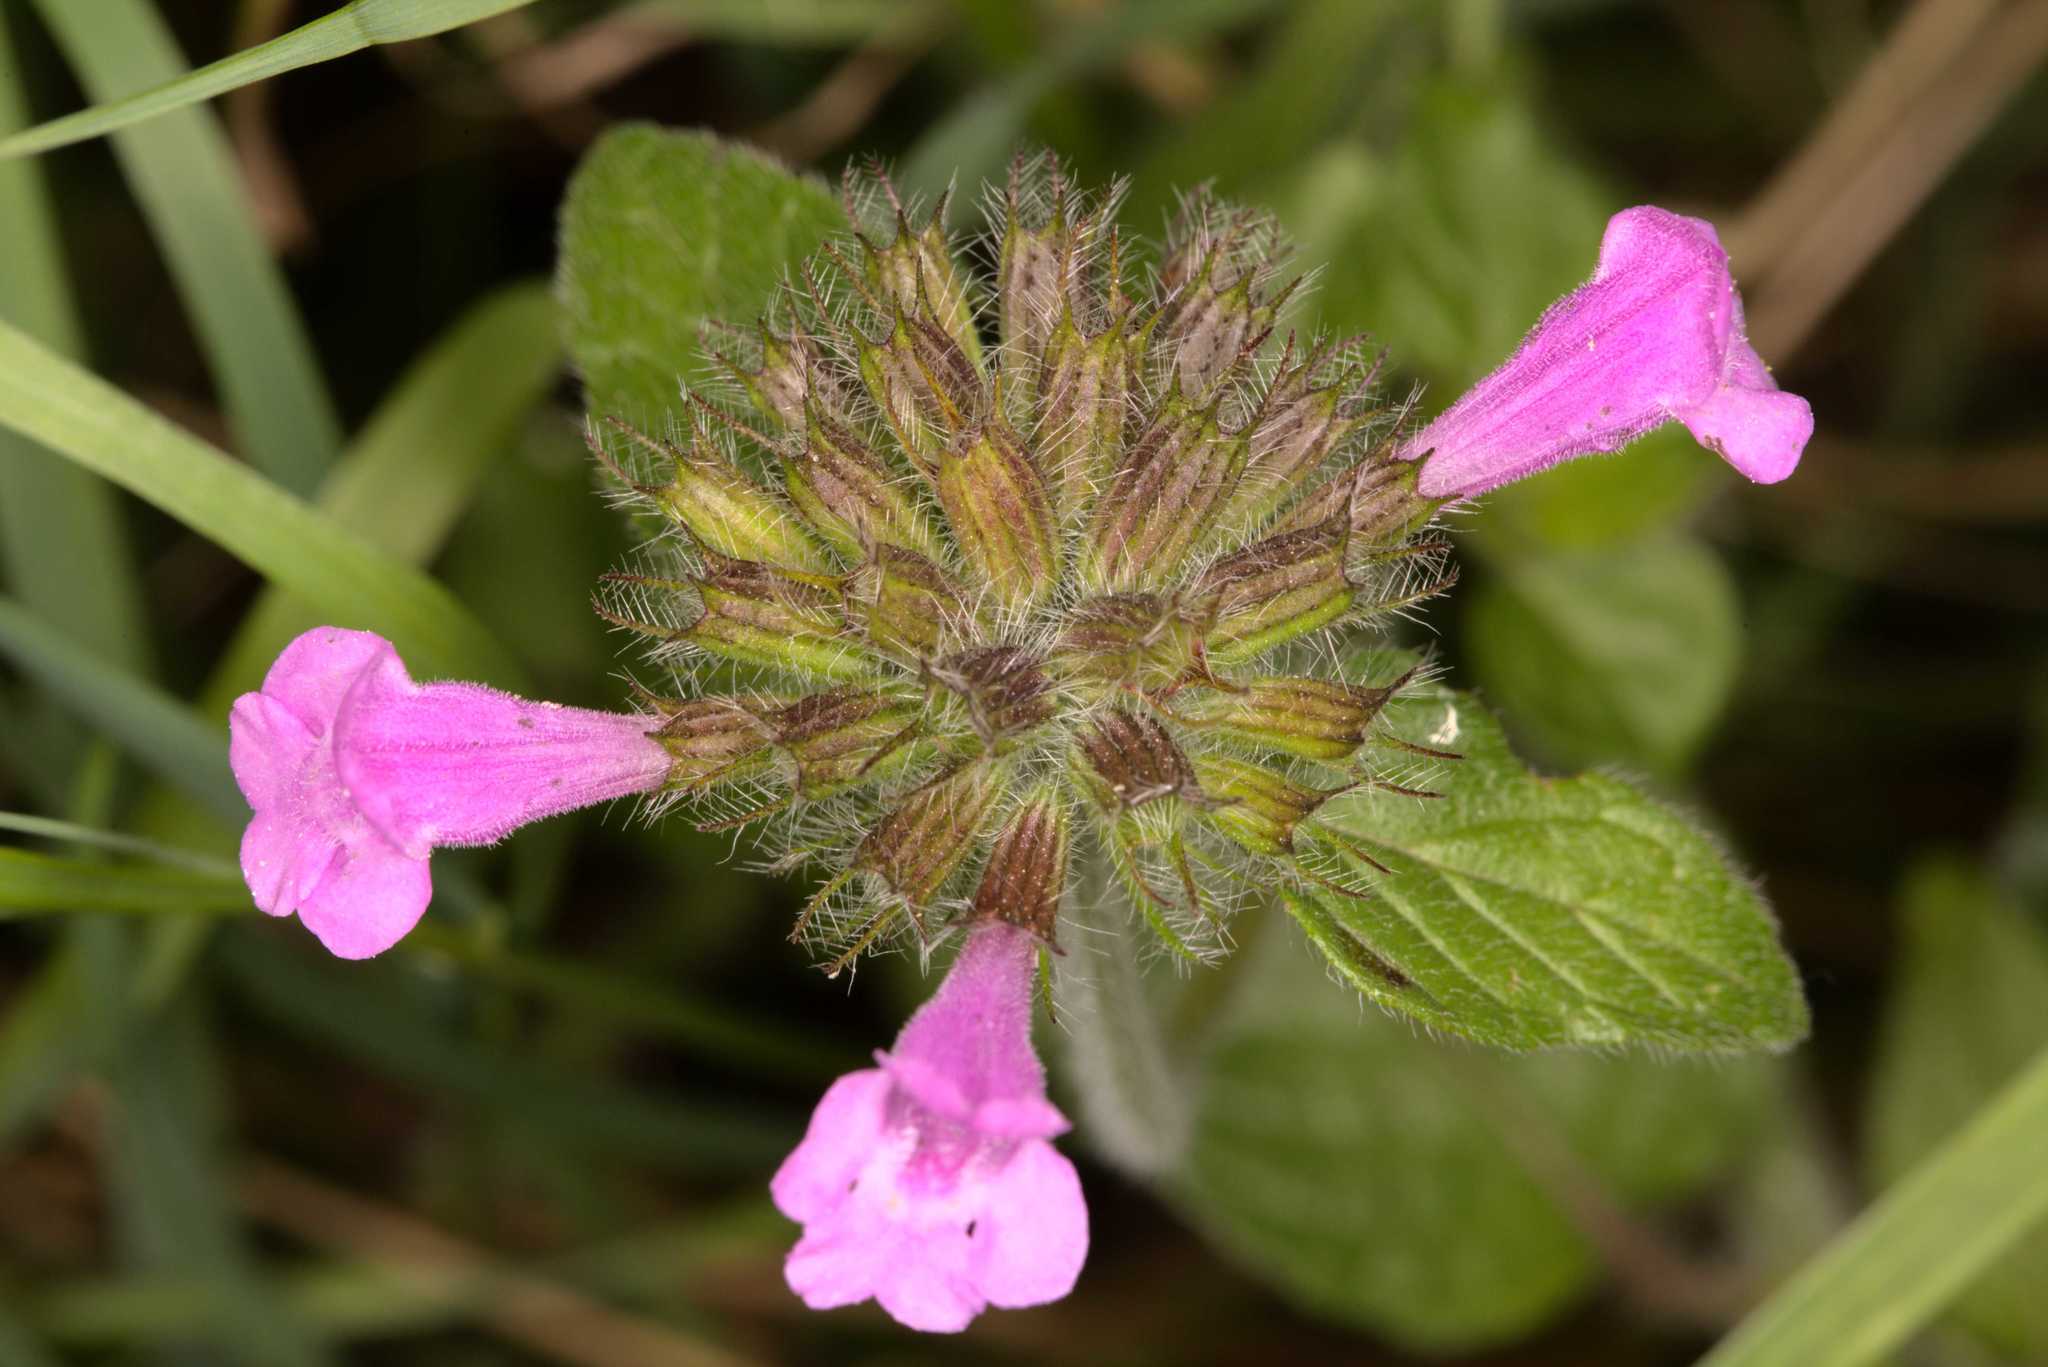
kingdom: Plantae
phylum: Tracheophyta
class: Magnoliopsida
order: Lamiales
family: Lamiaceae
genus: Clinopodium
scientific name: Clinopodium vulgare
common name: Wild basil
